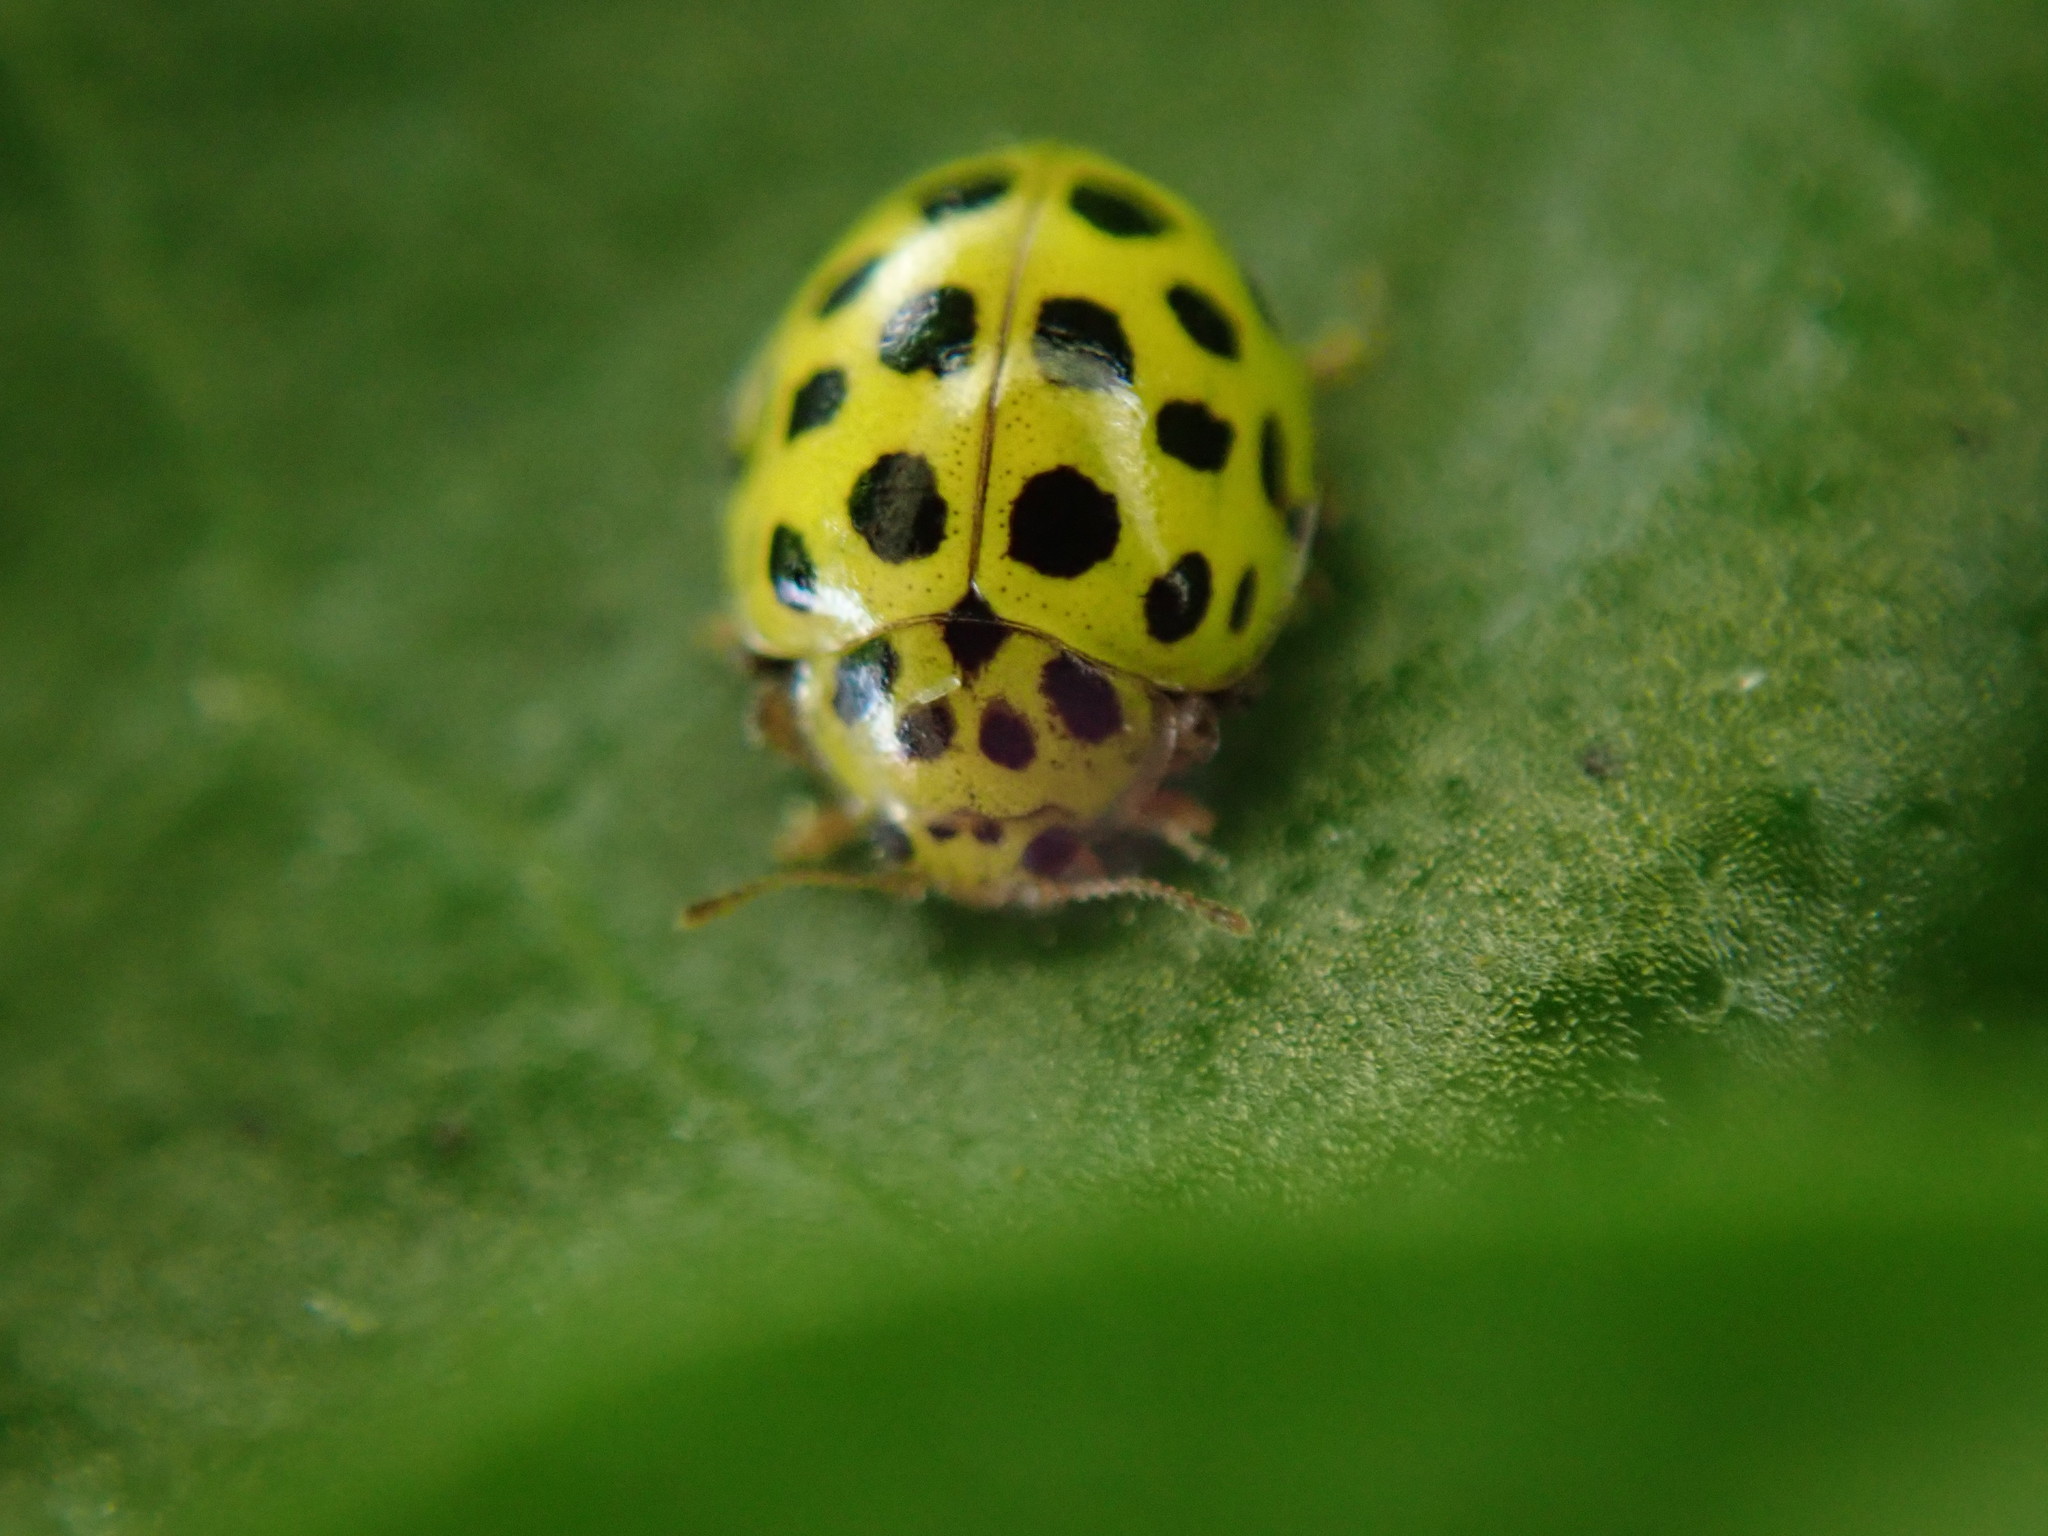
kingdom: Animalia
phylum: Arthropoda
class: Insecta
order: Coleoptera
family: Coccinellidae
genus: Psyllobora
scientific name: Psyllobora vigintiduopunctata
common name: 22-spot ladybird
